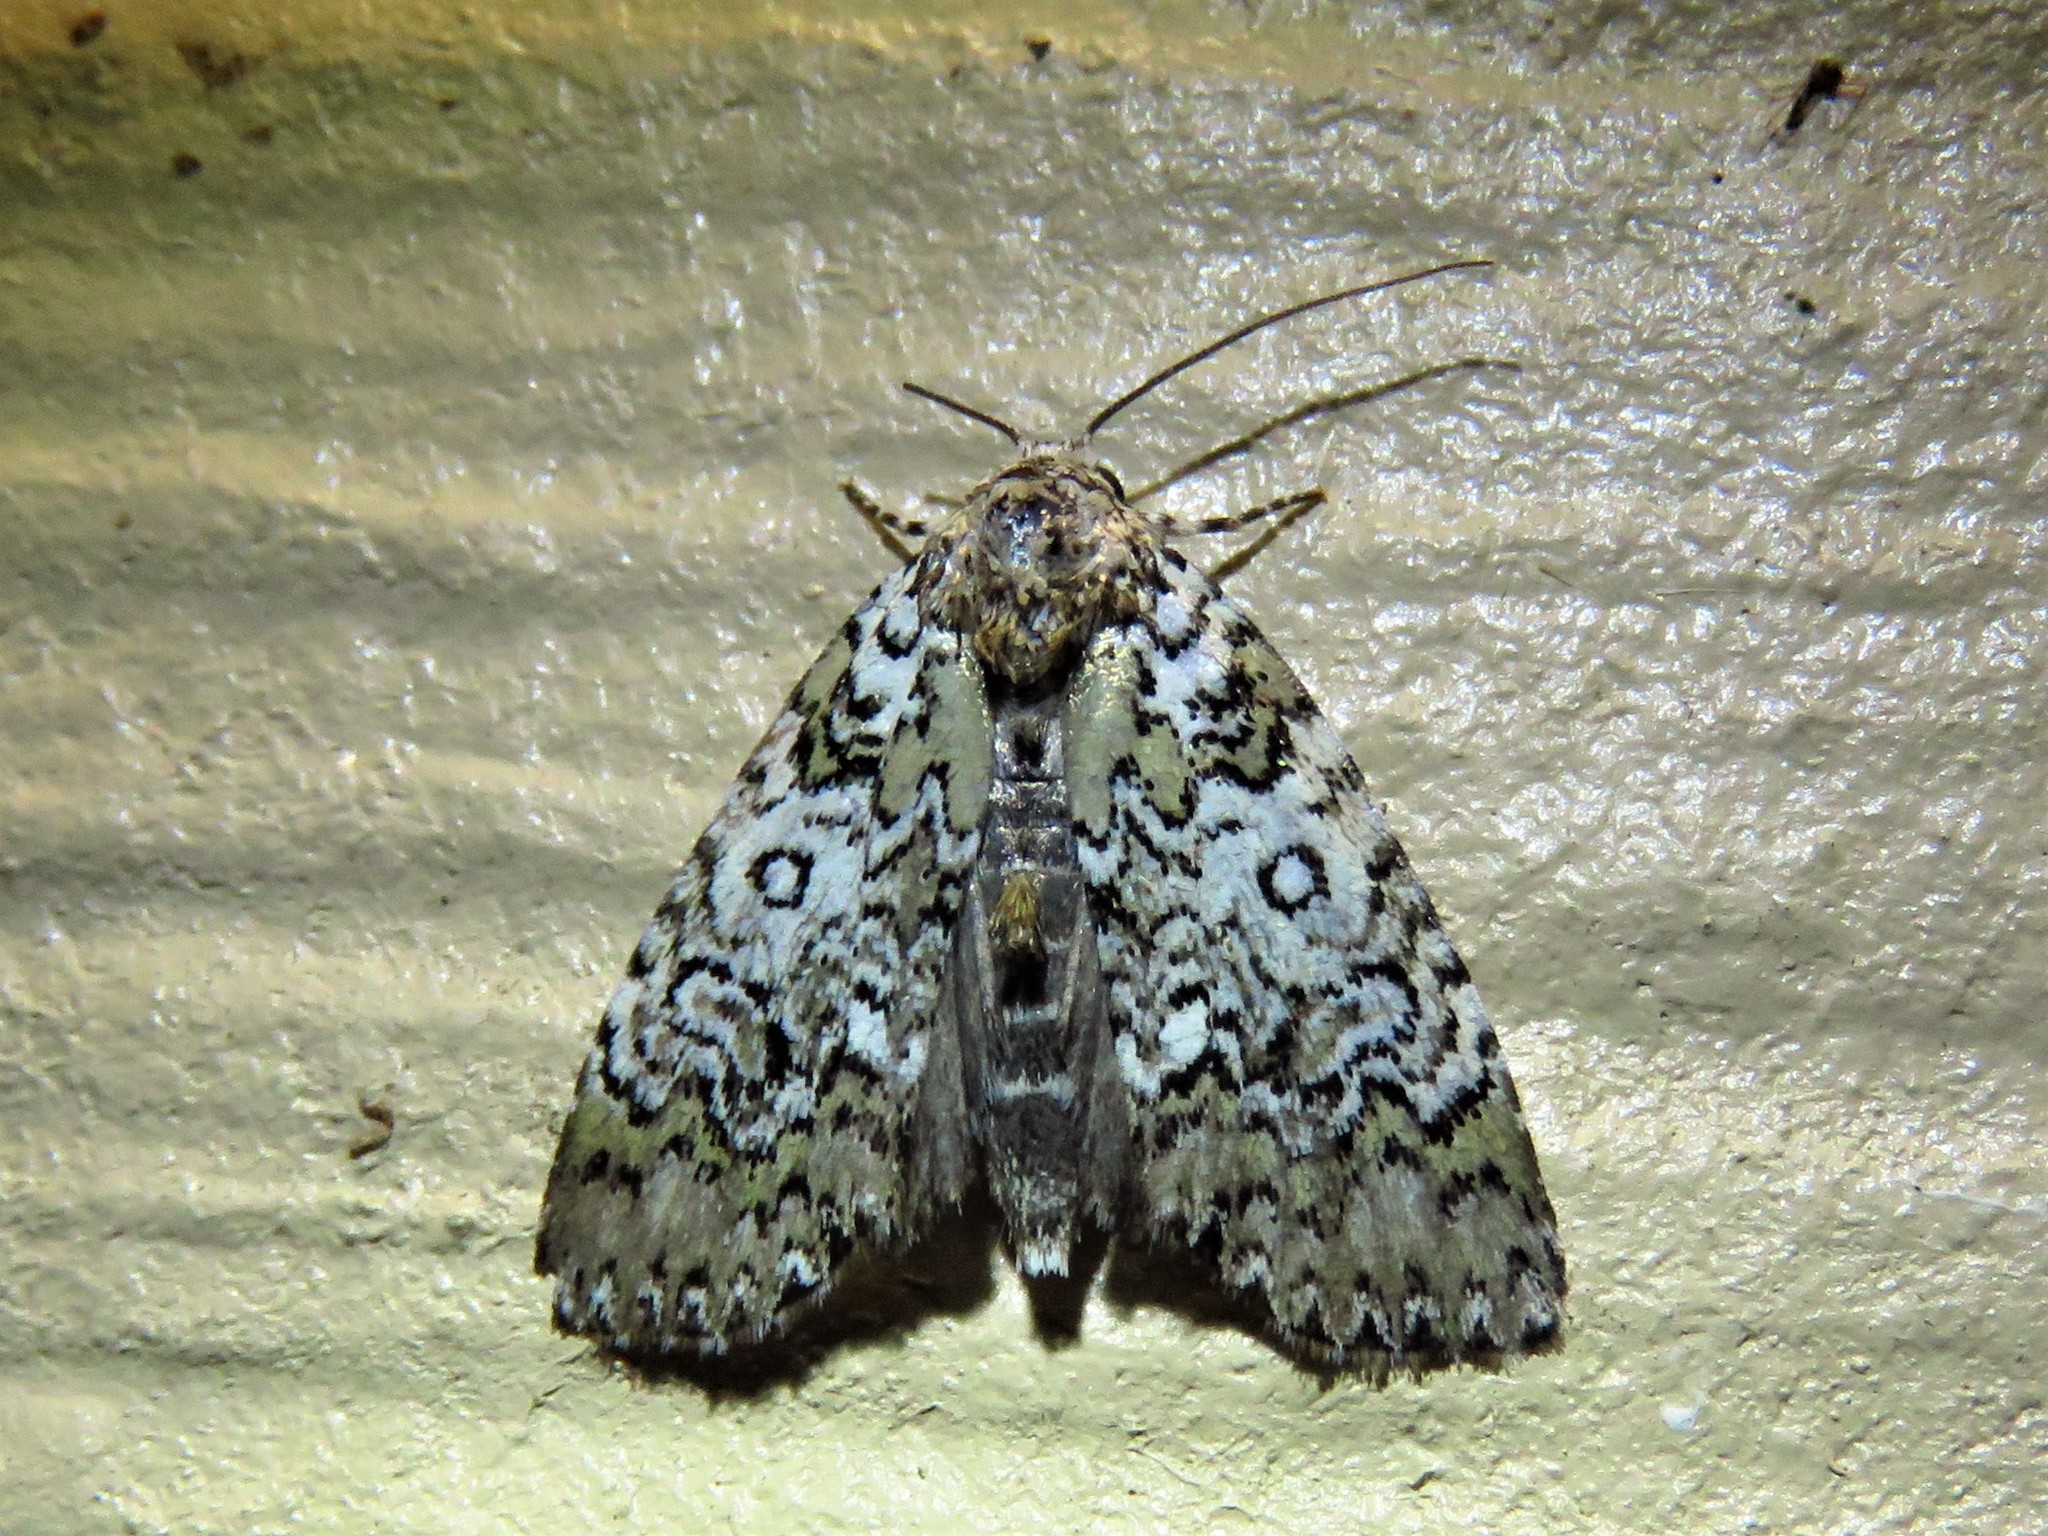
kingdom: Animalia
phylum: Arthropoda
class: Insecta
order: Lepidoptera
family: Noctuidae
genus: Cerma
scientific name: Cerma cora
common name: Bird dropping moth
